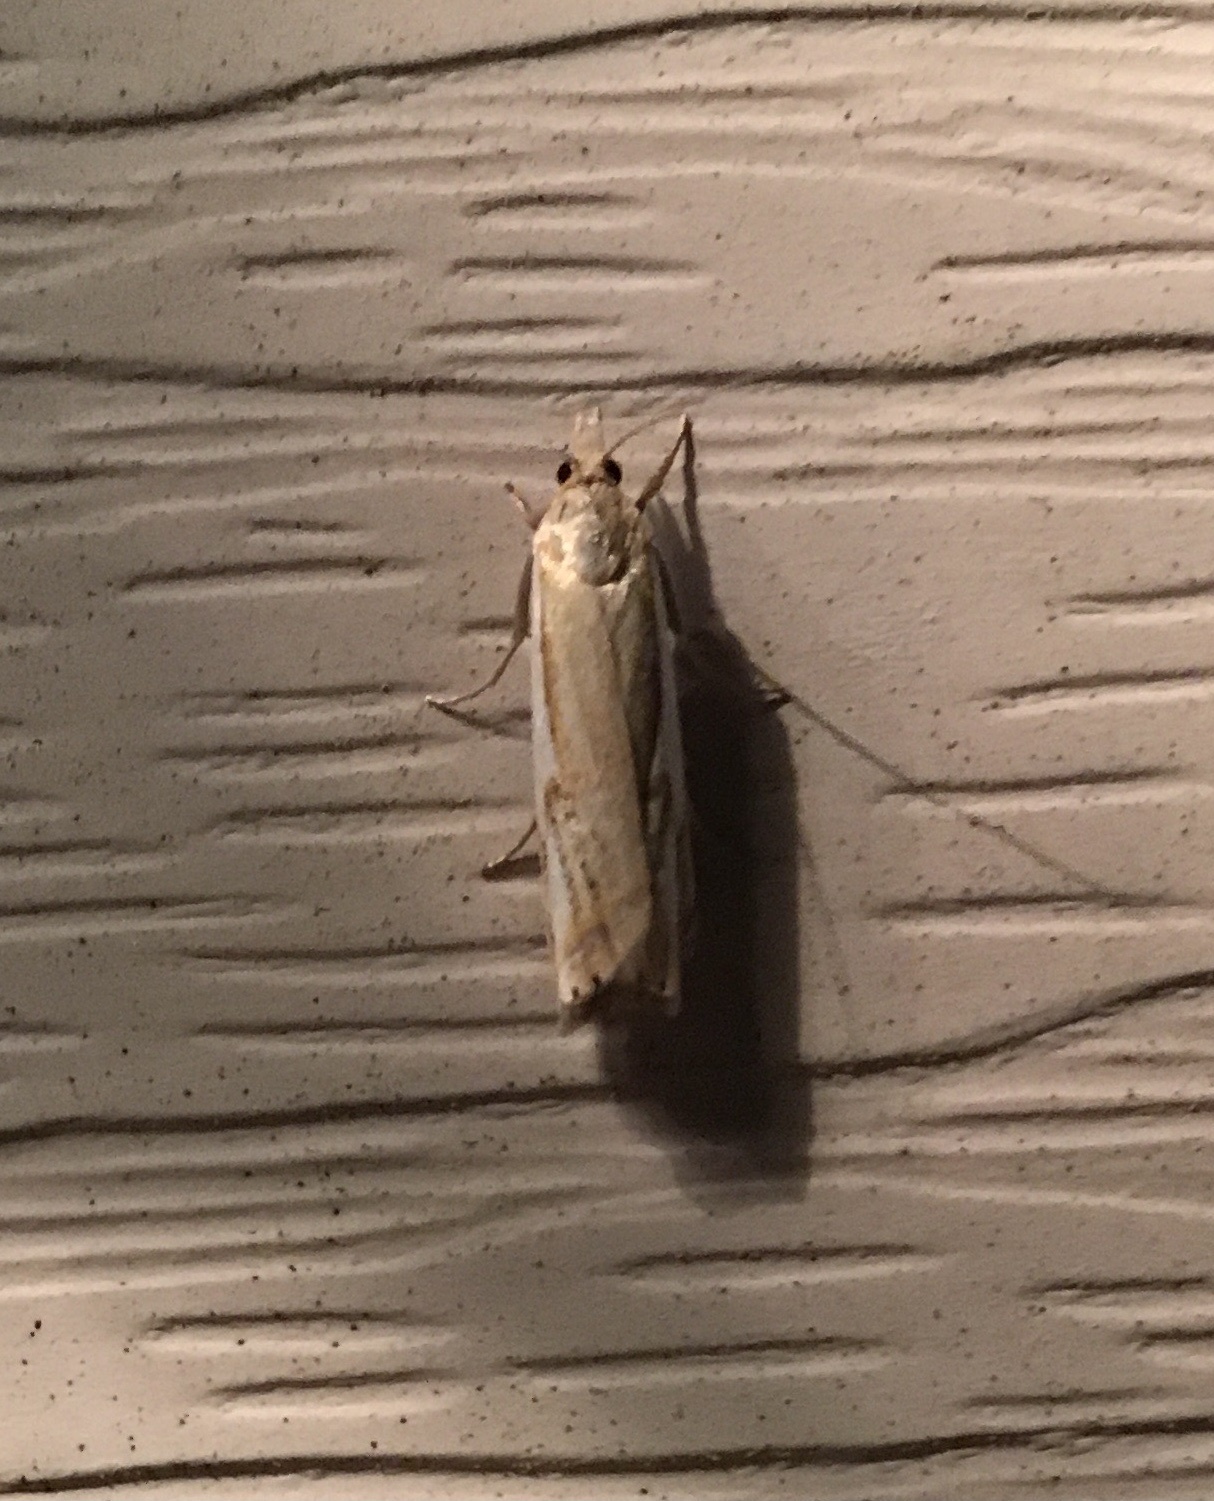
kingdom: Animalia
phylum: Arthropoda
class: Insecta
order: Lepidoptera
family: Crambidae
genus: Crambus
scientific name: Crambus agitatellus
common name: Double-banded grass-veneer
